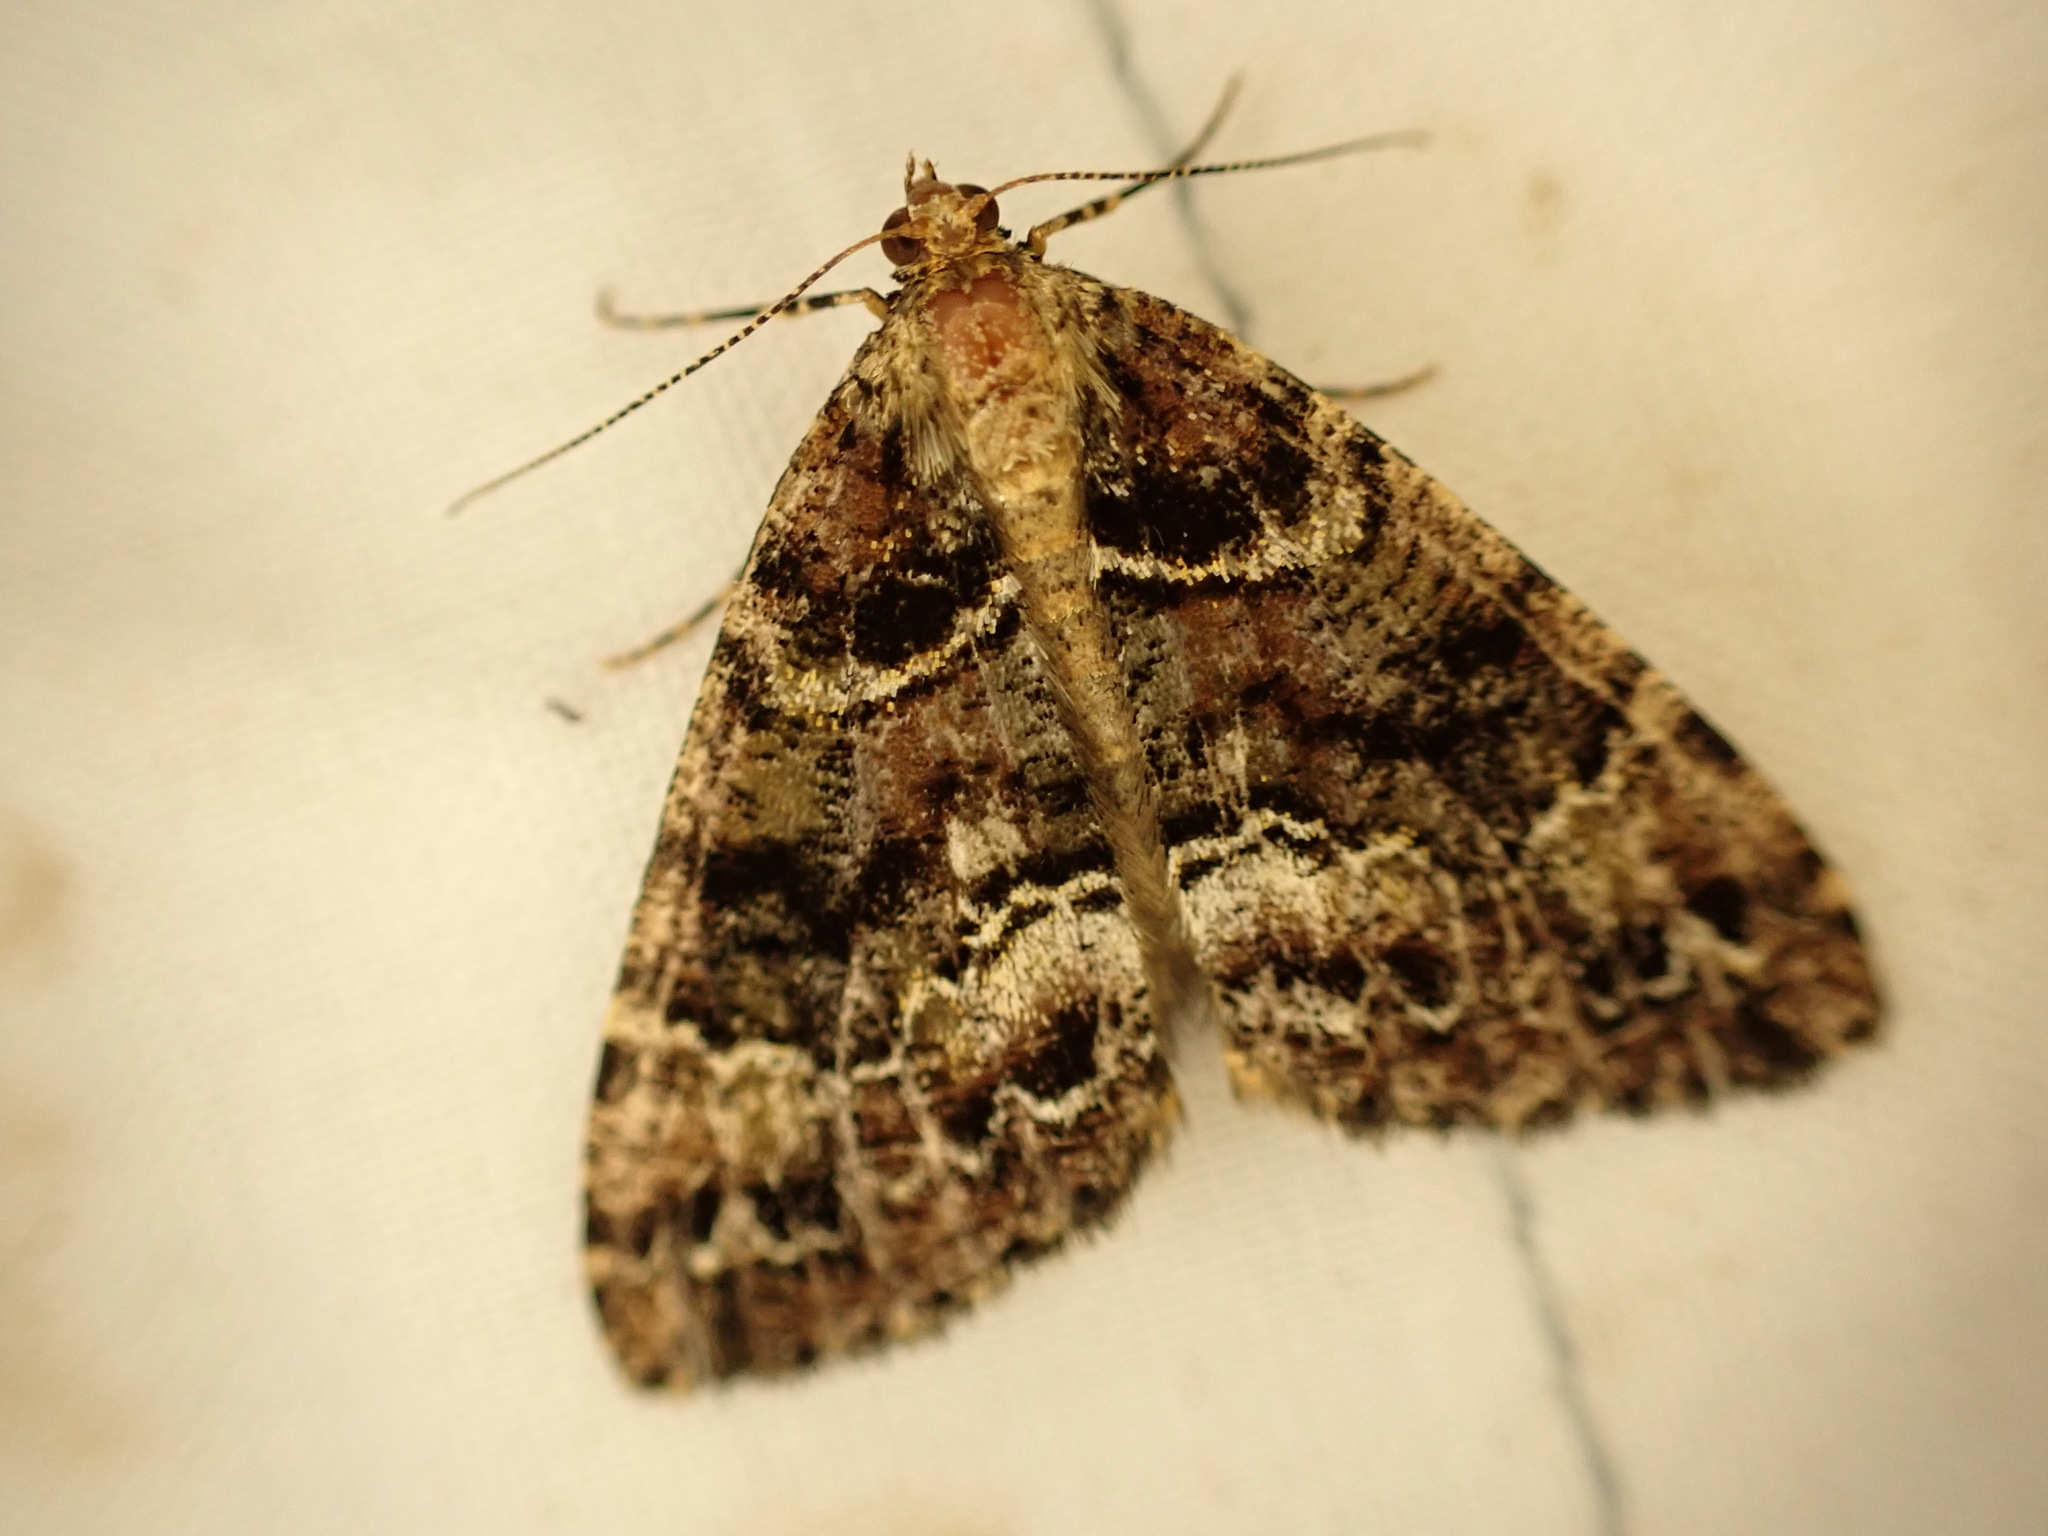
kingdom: Animalia
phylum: Arthropoda
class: Insecta
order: Lepidoptera
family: Geometridae
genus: Pseudocoremia
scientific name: Pseudocoremia productata
